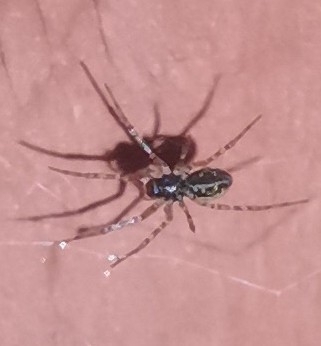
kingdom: Animalia
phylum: Arthropoda
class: Arachnida
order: Araneae
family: Linyphiidae
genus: Neriene
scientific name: Neriene montana
